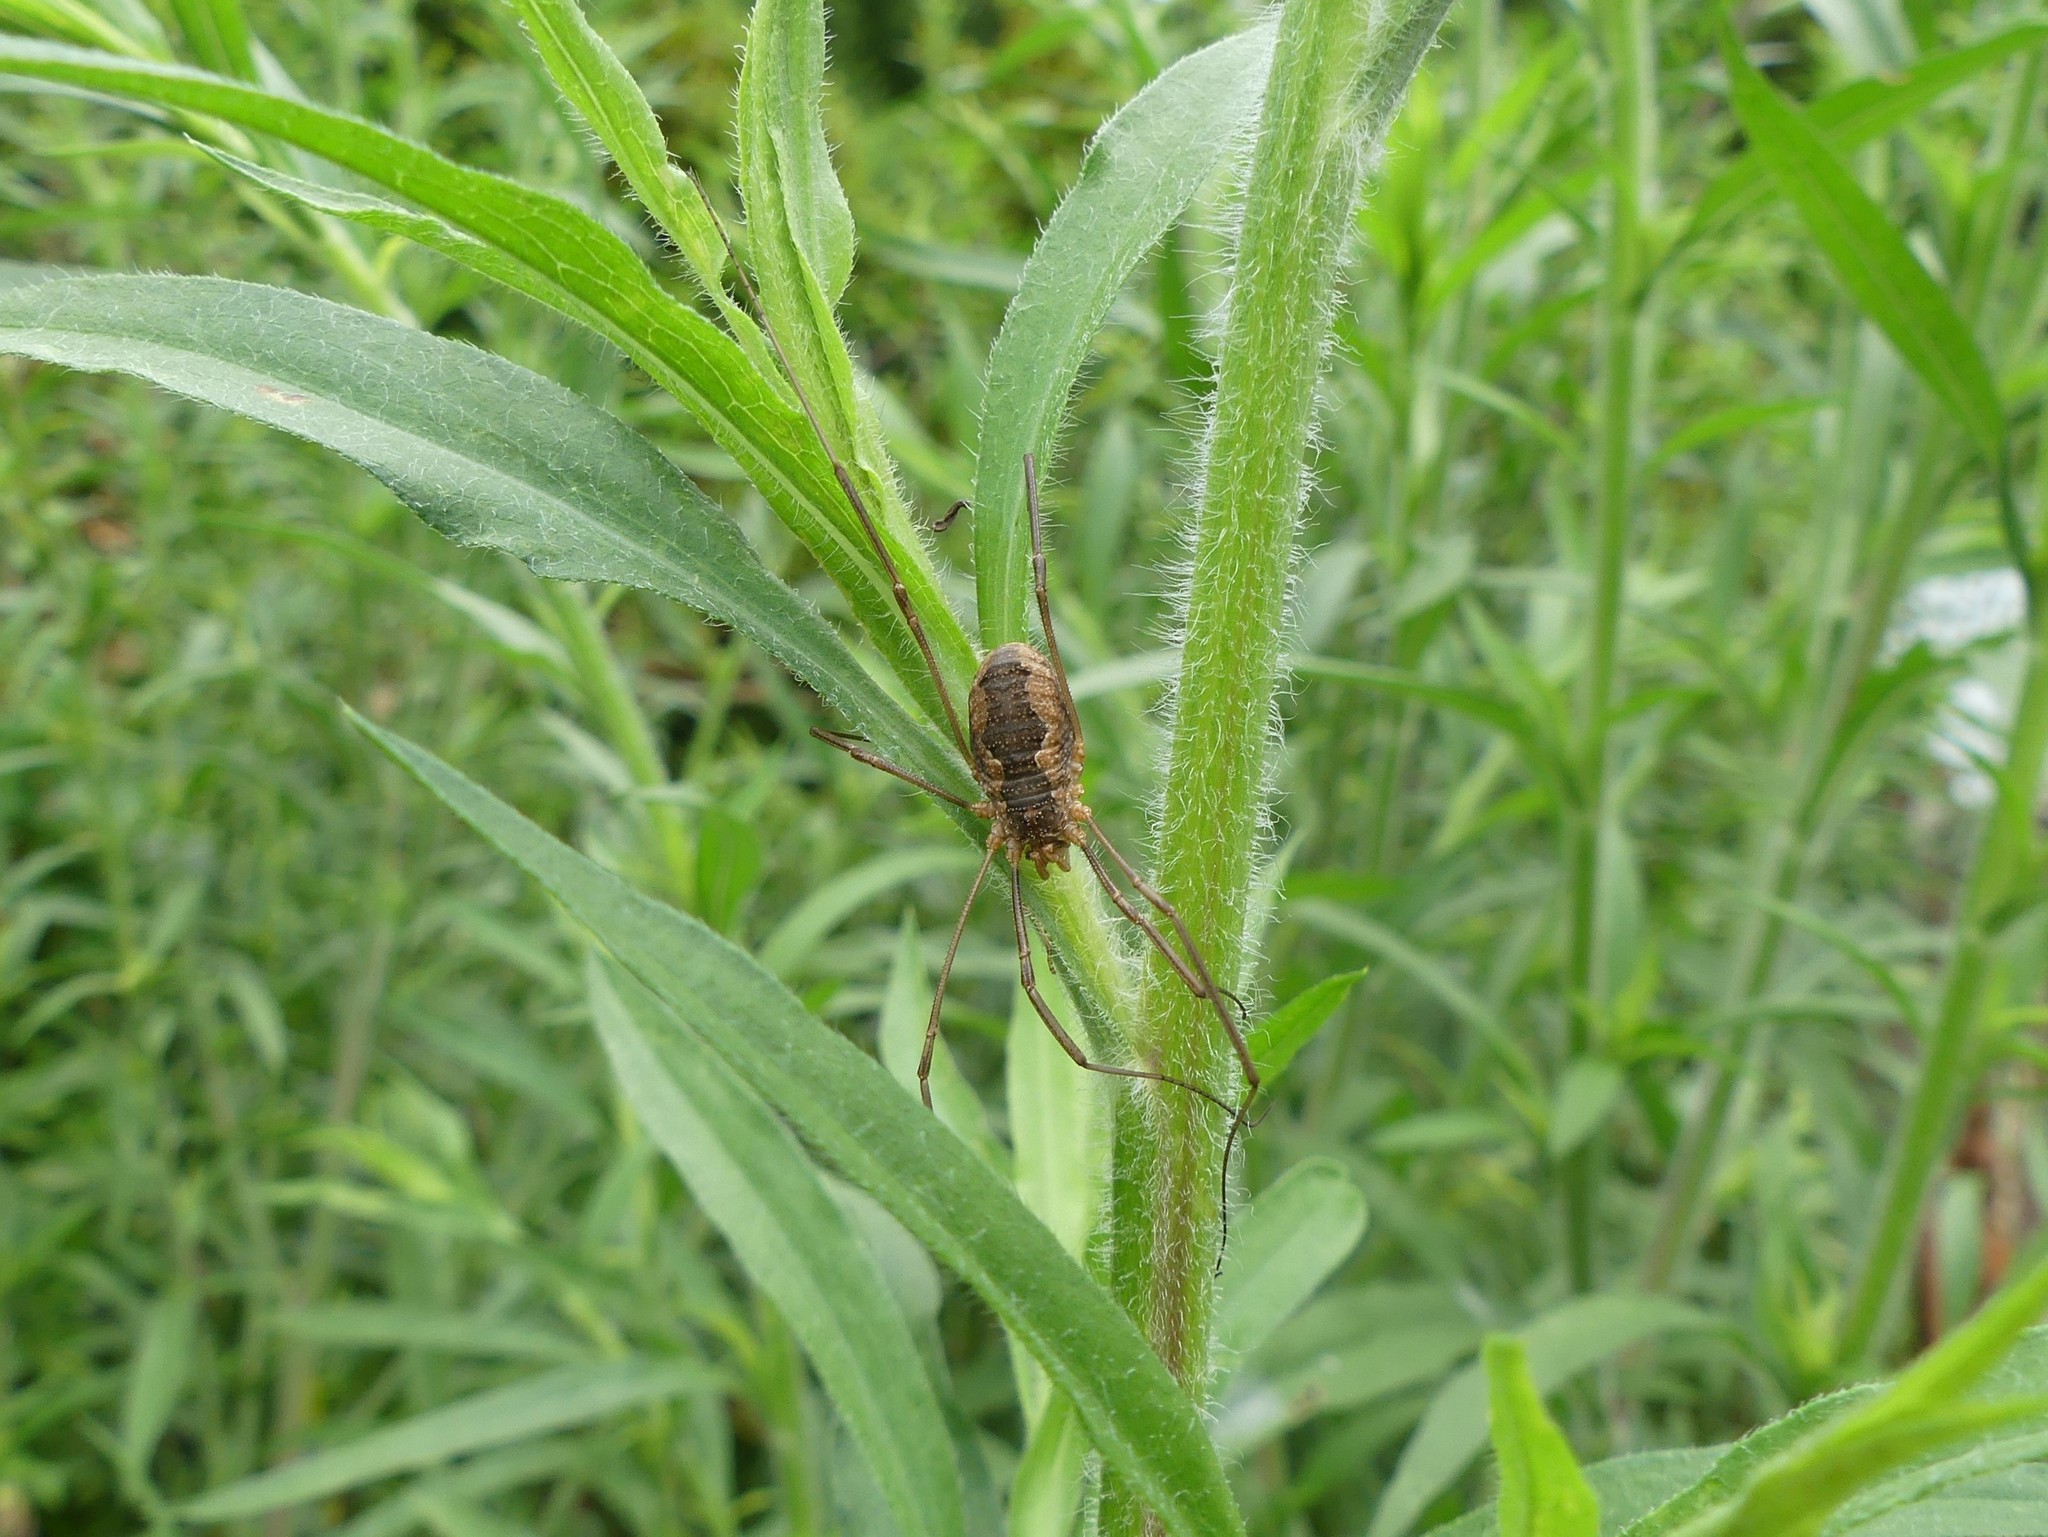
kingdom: Animalia
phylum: Arthropoda
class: Arachnida
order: Opiliones
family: Phalangiidae
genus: Phalangium
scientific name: Phalangium opilio
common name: Daddy longleg
